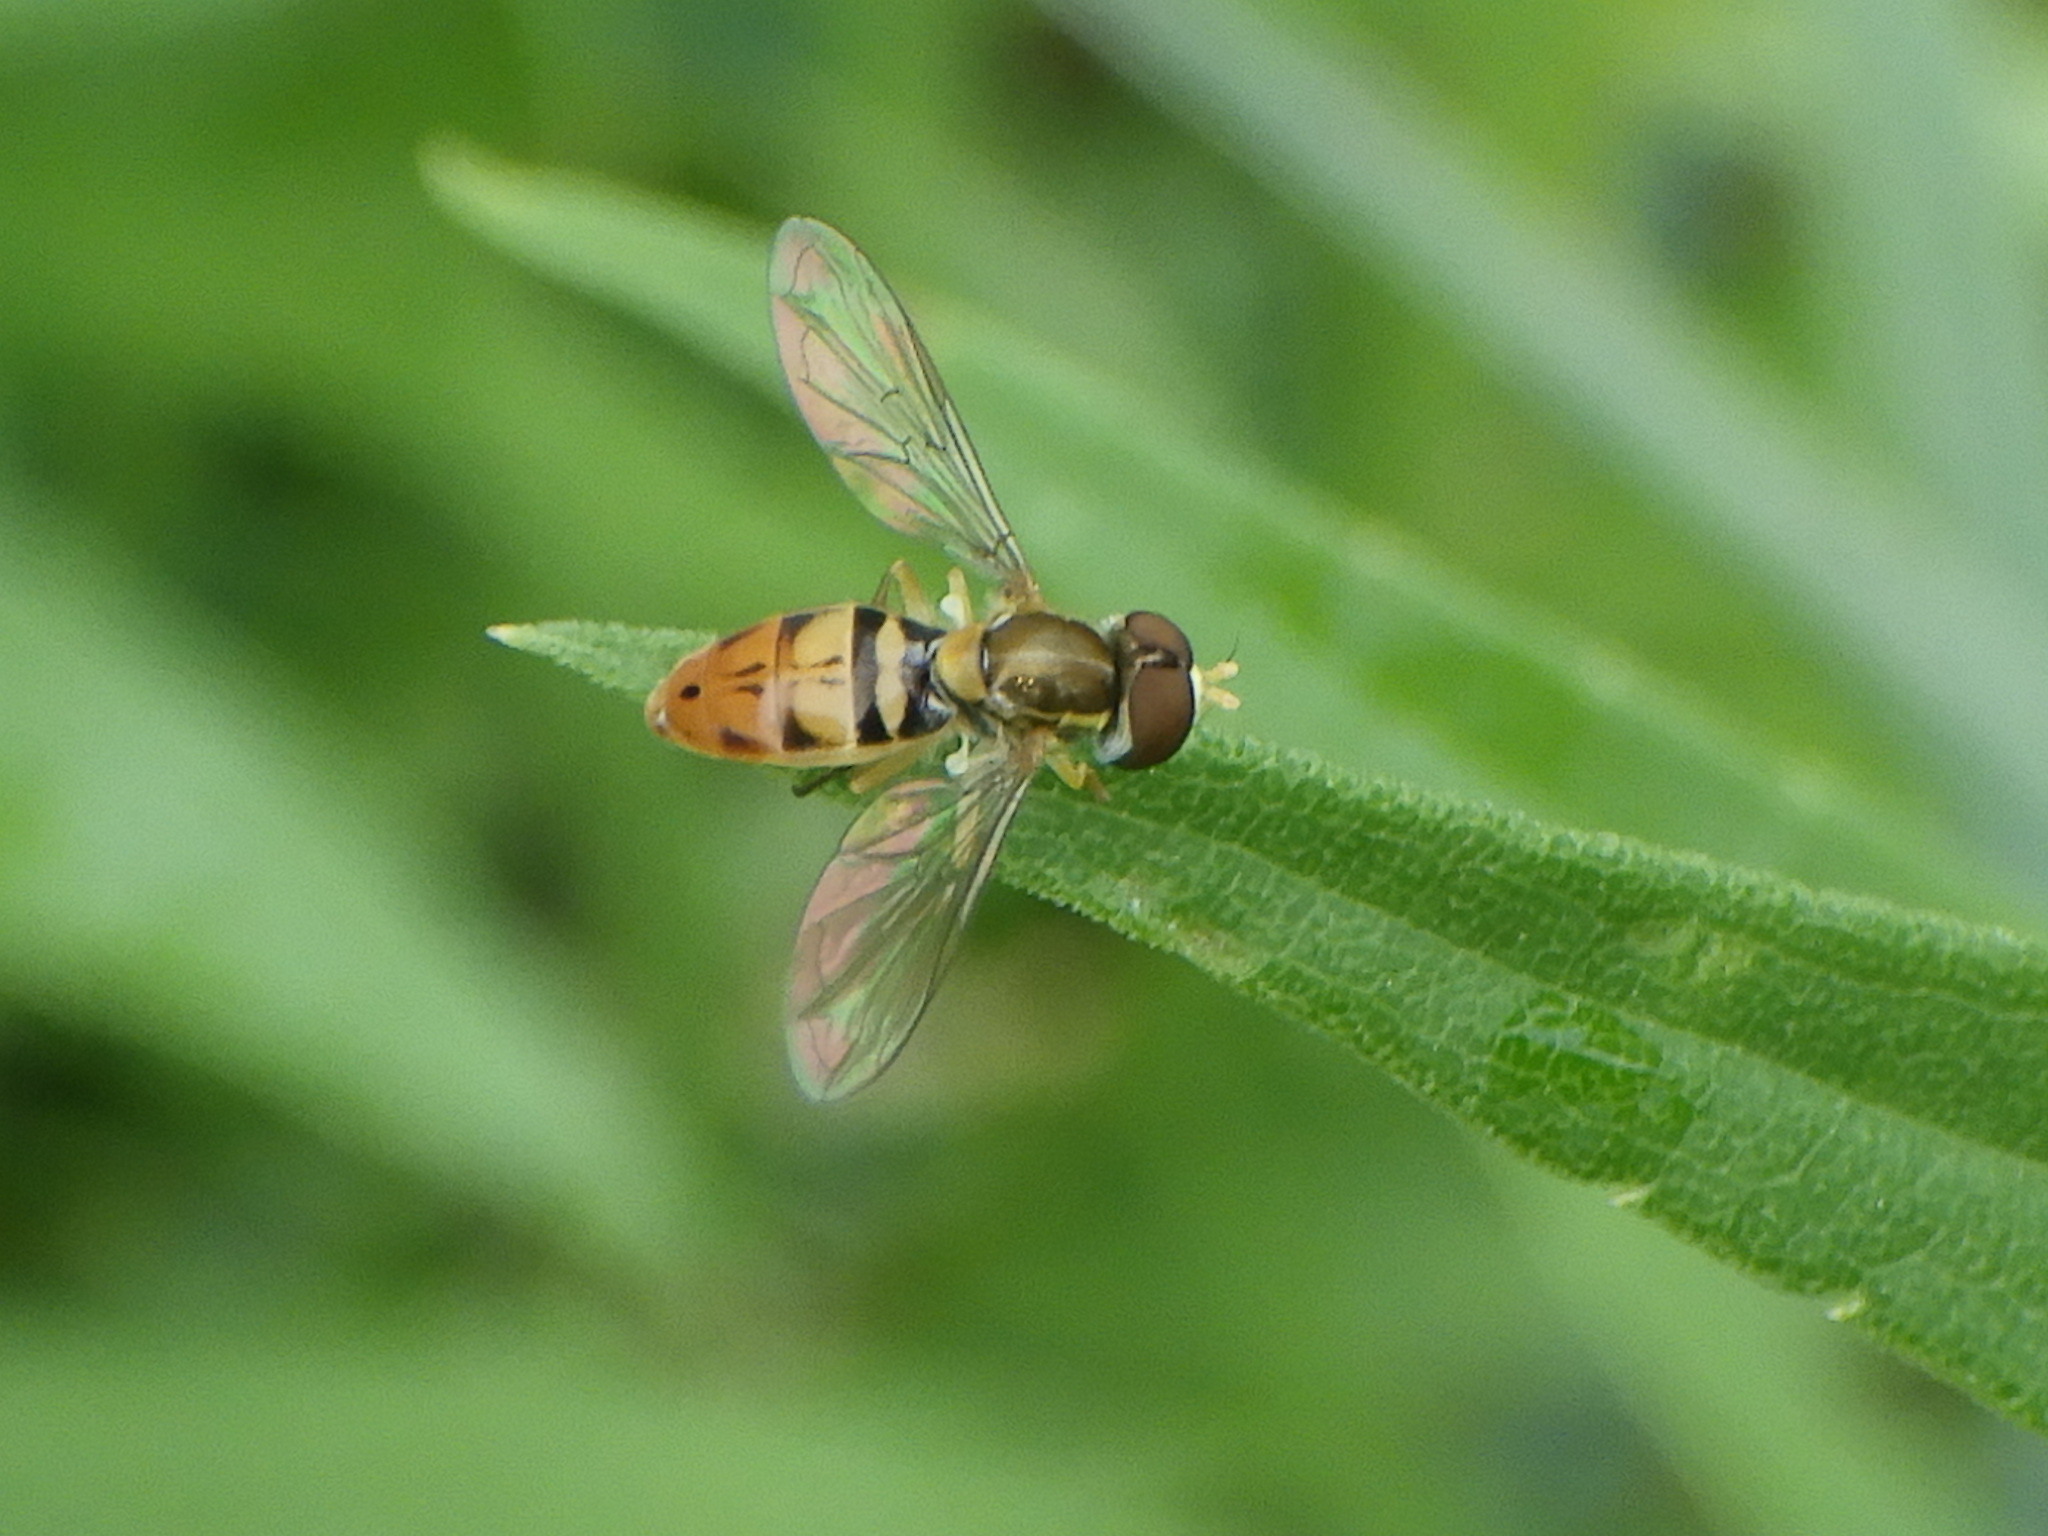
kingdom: Animalia
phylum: Arthropoda
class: Insecta
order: Diptera
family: Syrphidae
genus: Toxomerus
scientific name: Toxomerus marginatus
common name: Syrphid fly
